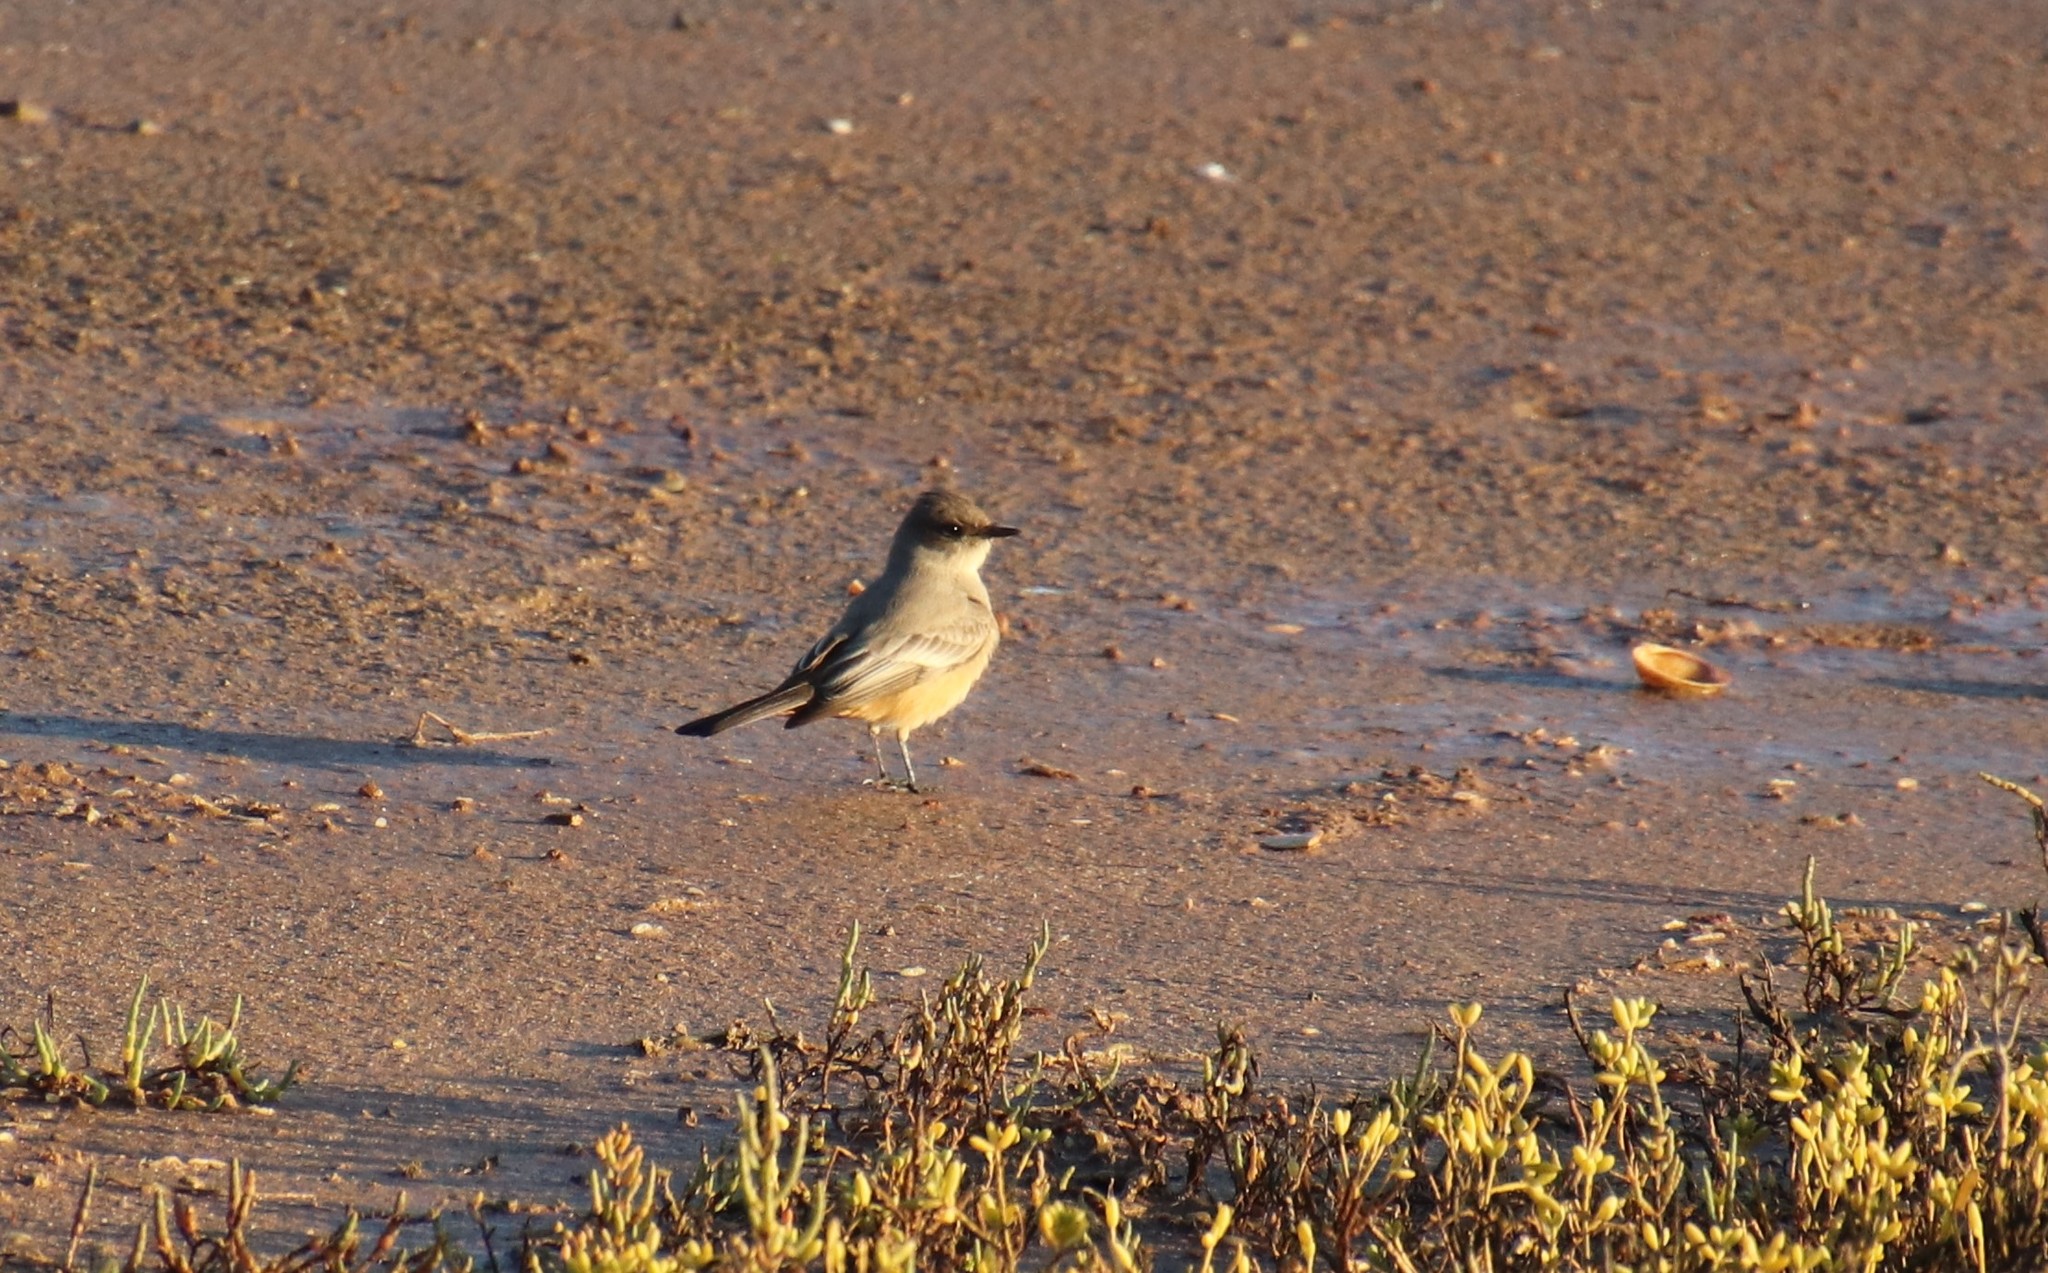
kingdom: Animalia
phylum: Chordata
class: Aves
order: Passeriformes
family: Tyrannidae
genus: Sayornis
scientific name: Sayornis saya
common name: Say's phoebe
